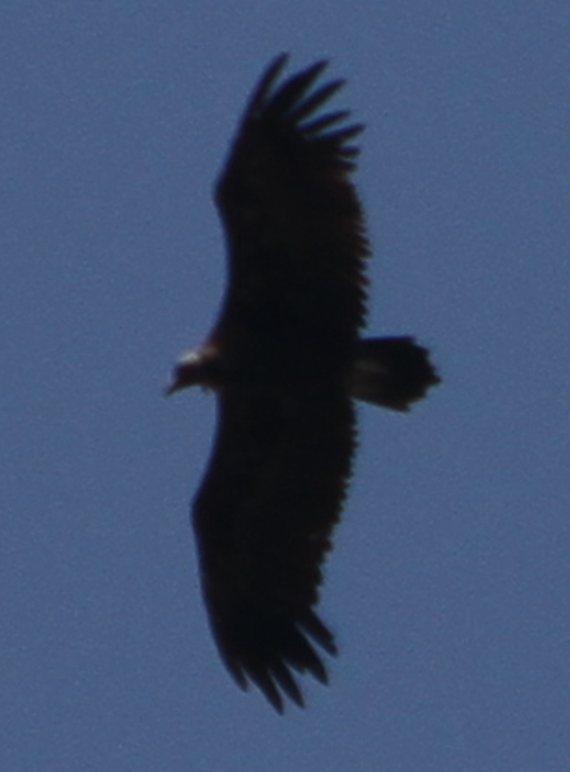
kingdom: Animalia
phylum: Chordata
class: Aves
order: Accipitriformes
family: Accipitridae
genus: Gyps
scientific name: Gyps fulvus
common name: Griffon vulture
